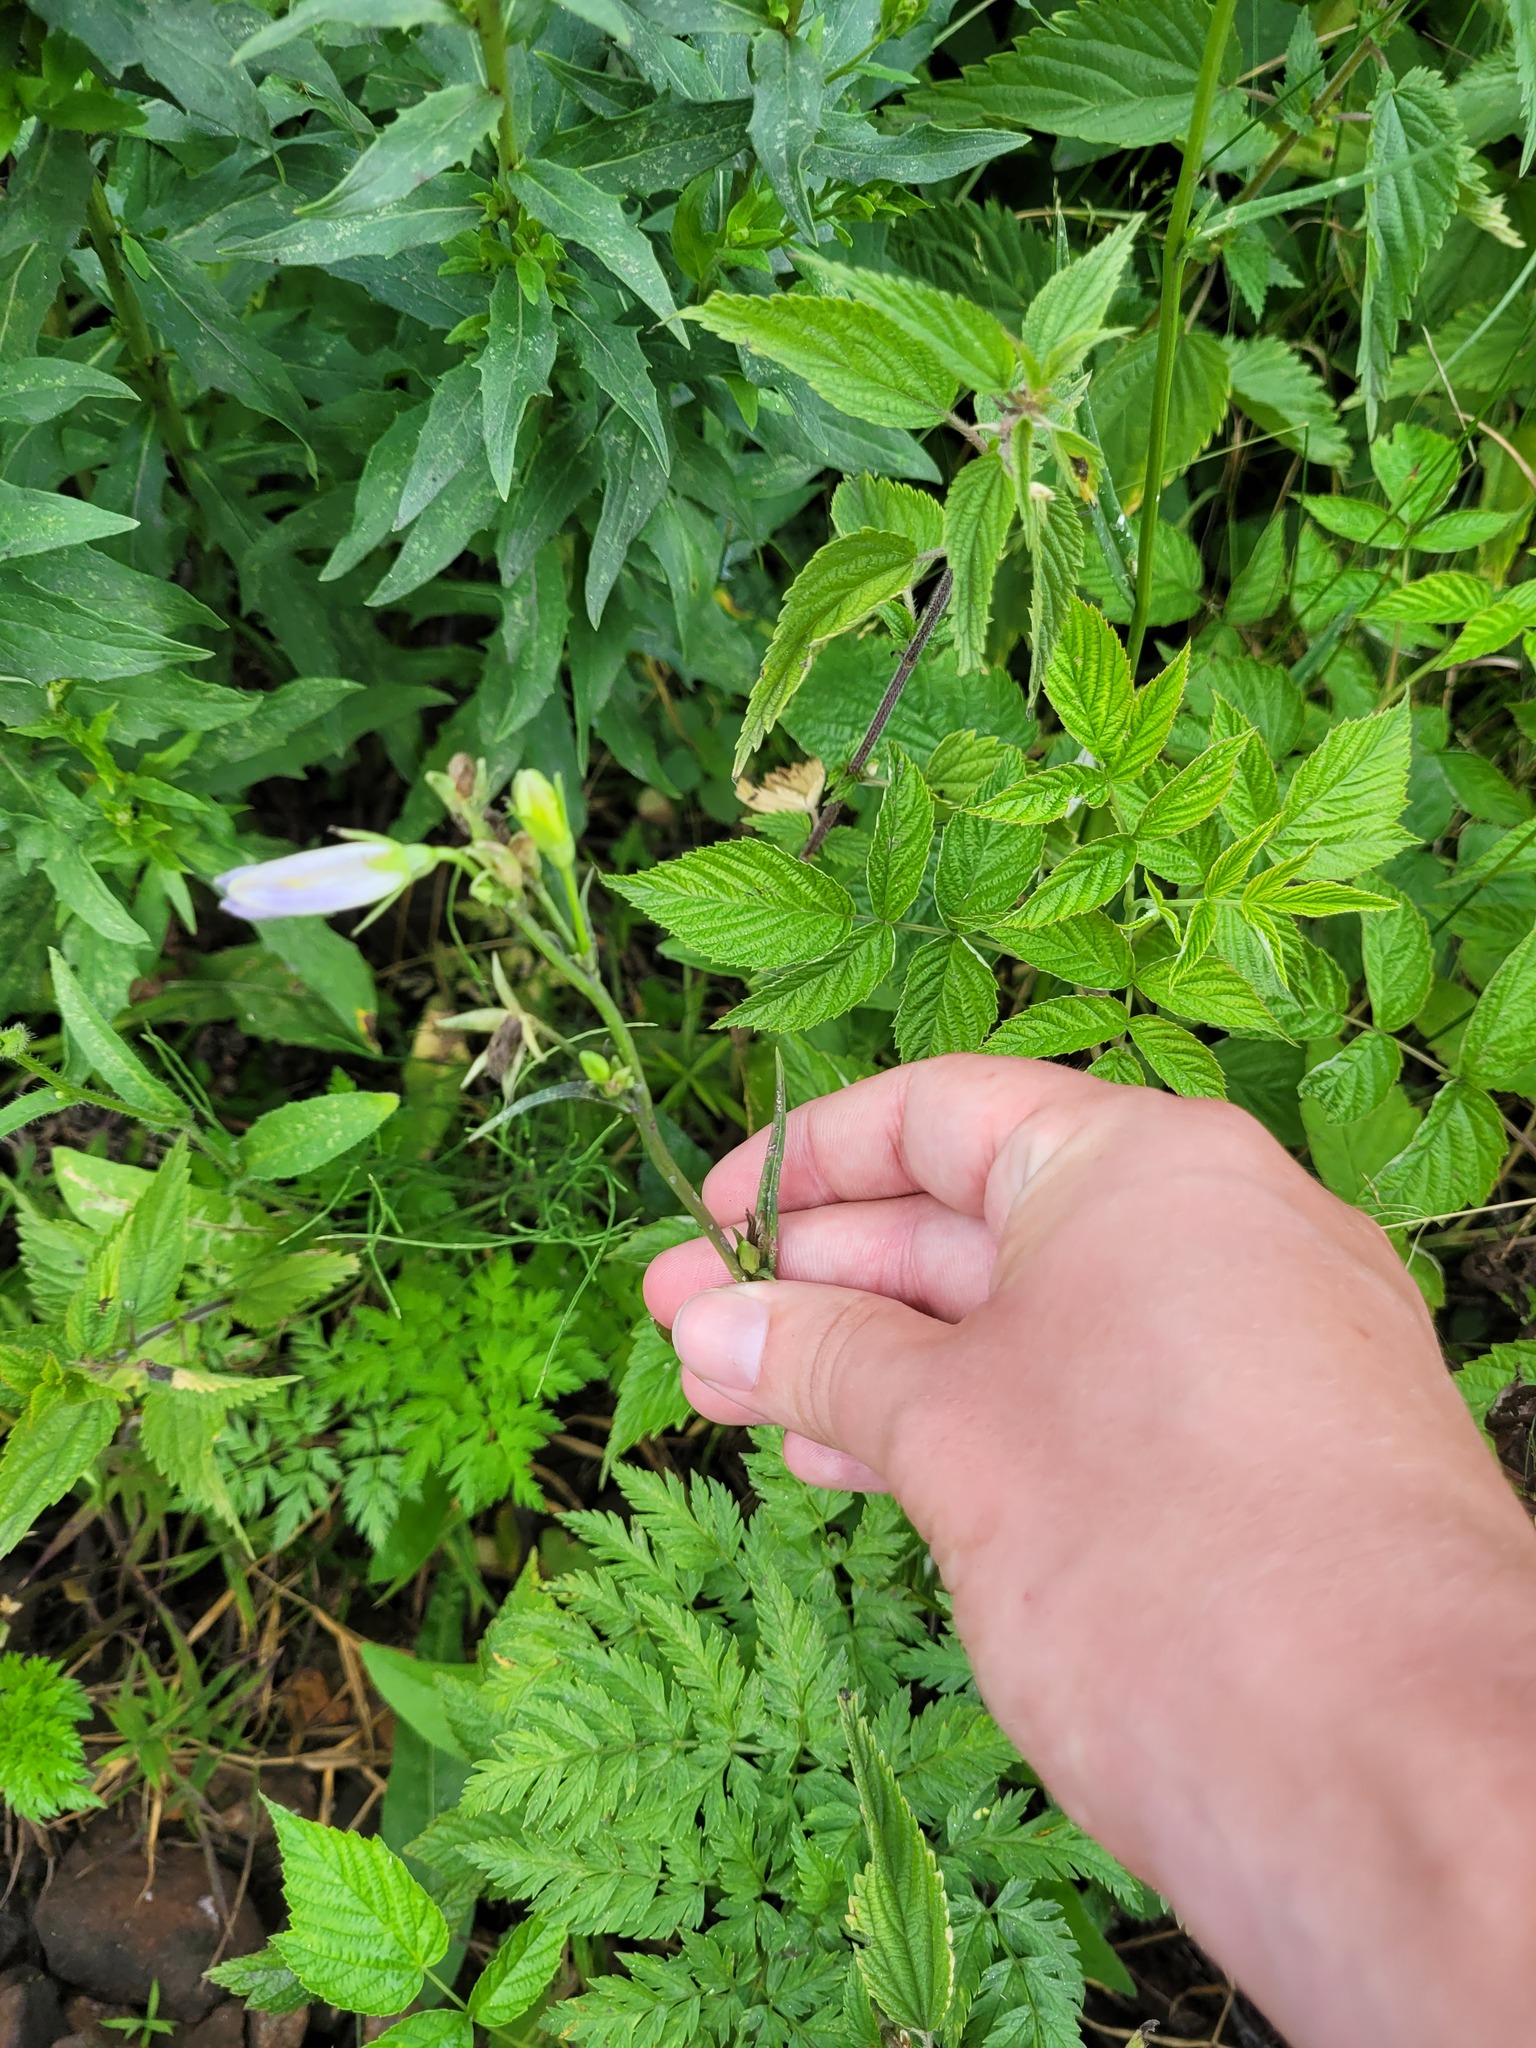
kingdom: Plantae
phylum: Tracheophyta
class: Magnoliopsida
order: Asterales
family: Campanulaceae
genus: Campanula
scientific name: Campanula persicifolia
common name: Peach-leaved bellflower
